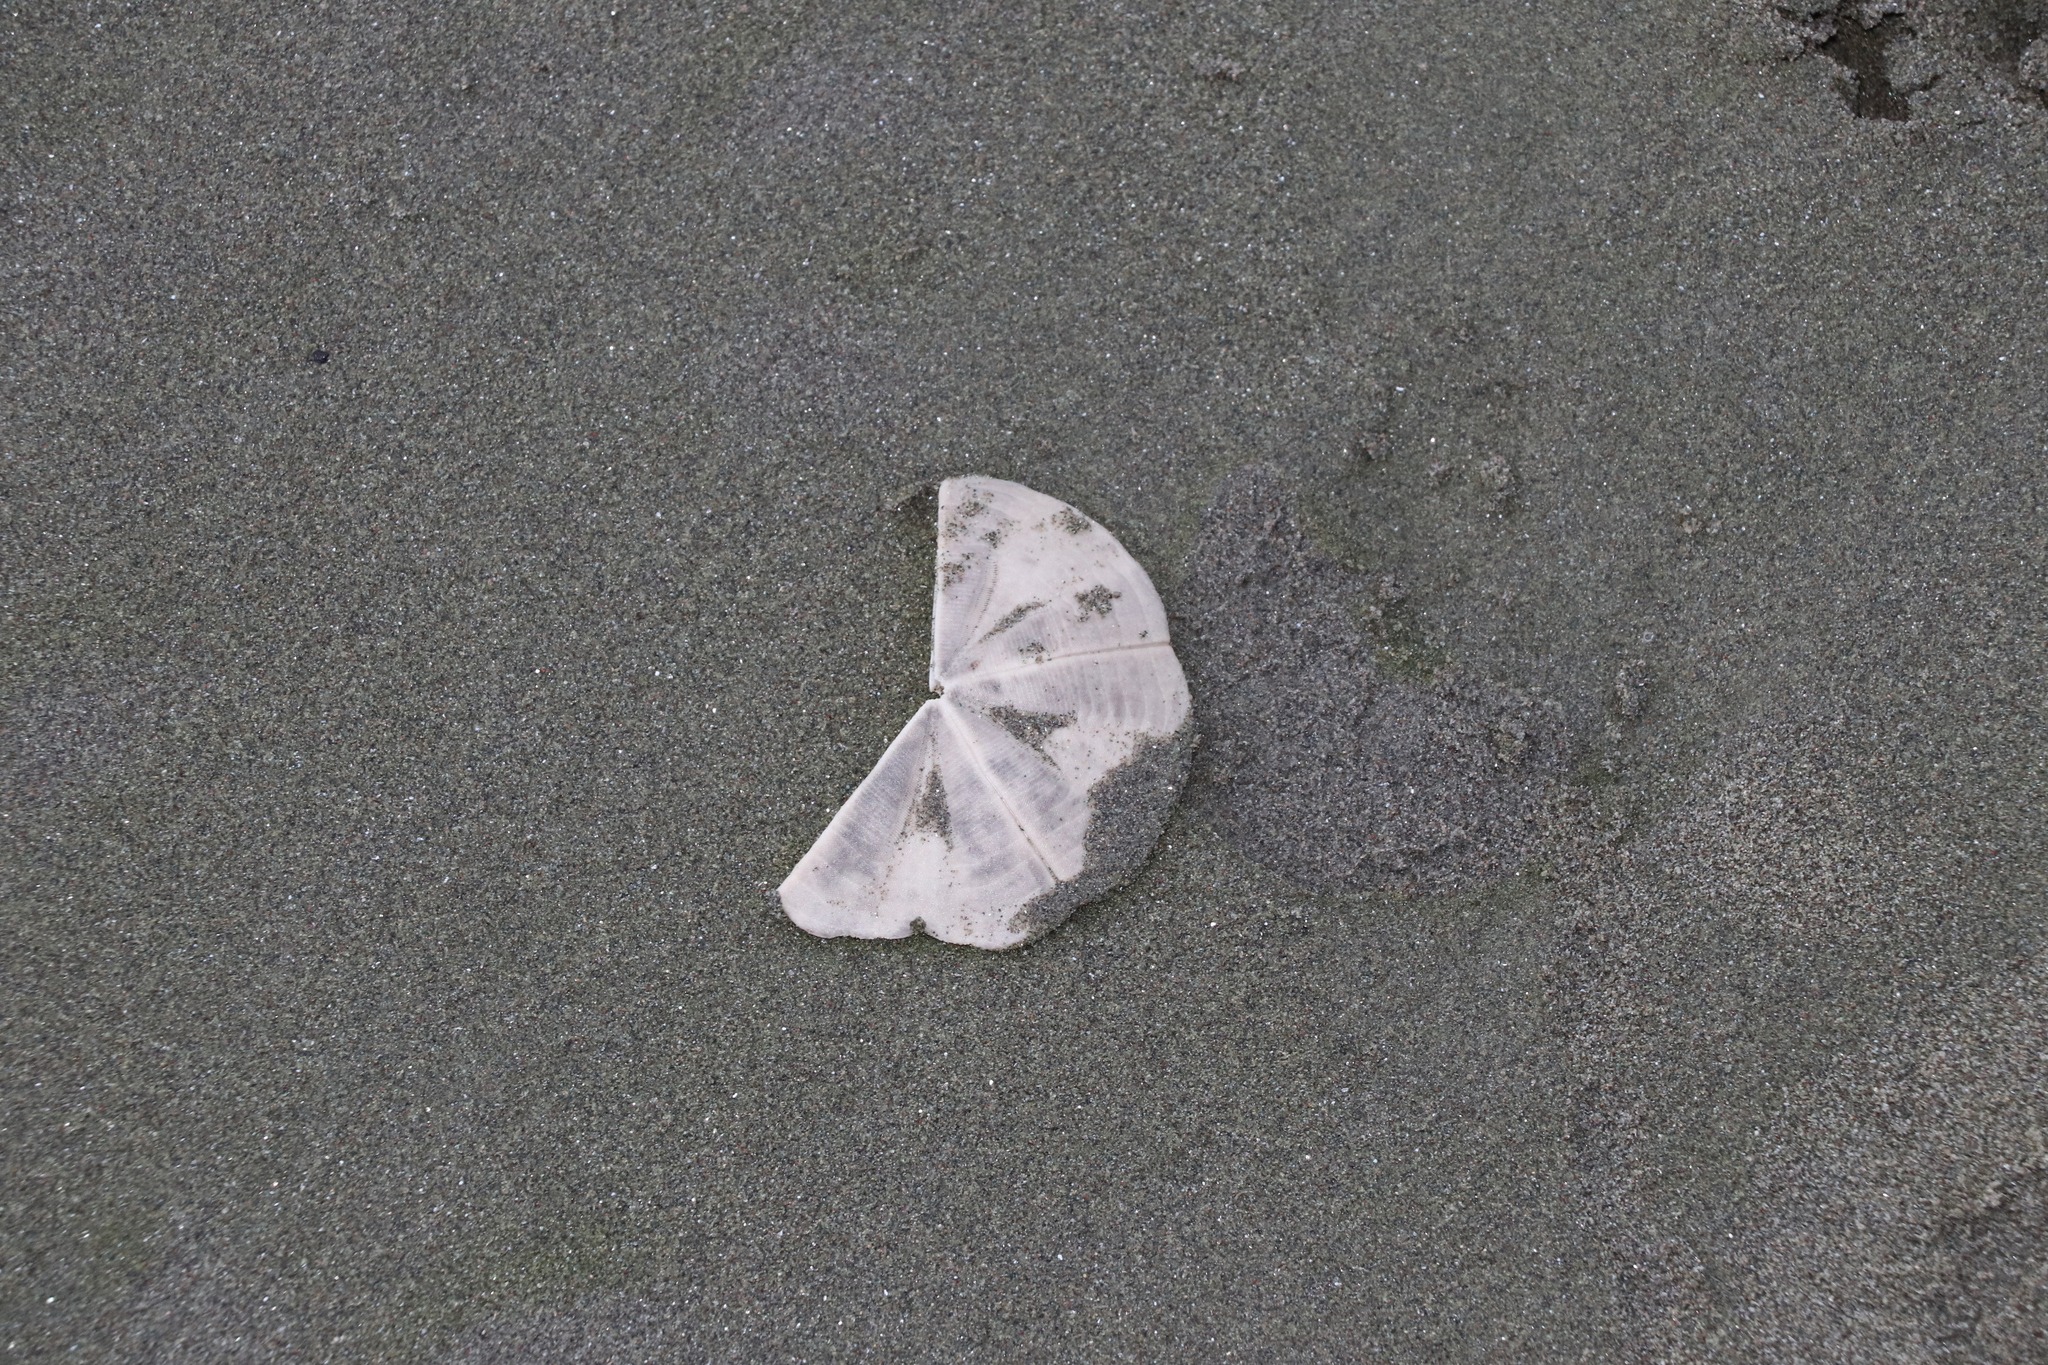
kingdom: Animalia
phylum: Echinodermata
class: Echinoidea
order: Clypeasteroida
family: Clypeasteridae
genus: Fellaster
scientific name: Fellaster zelandiae
